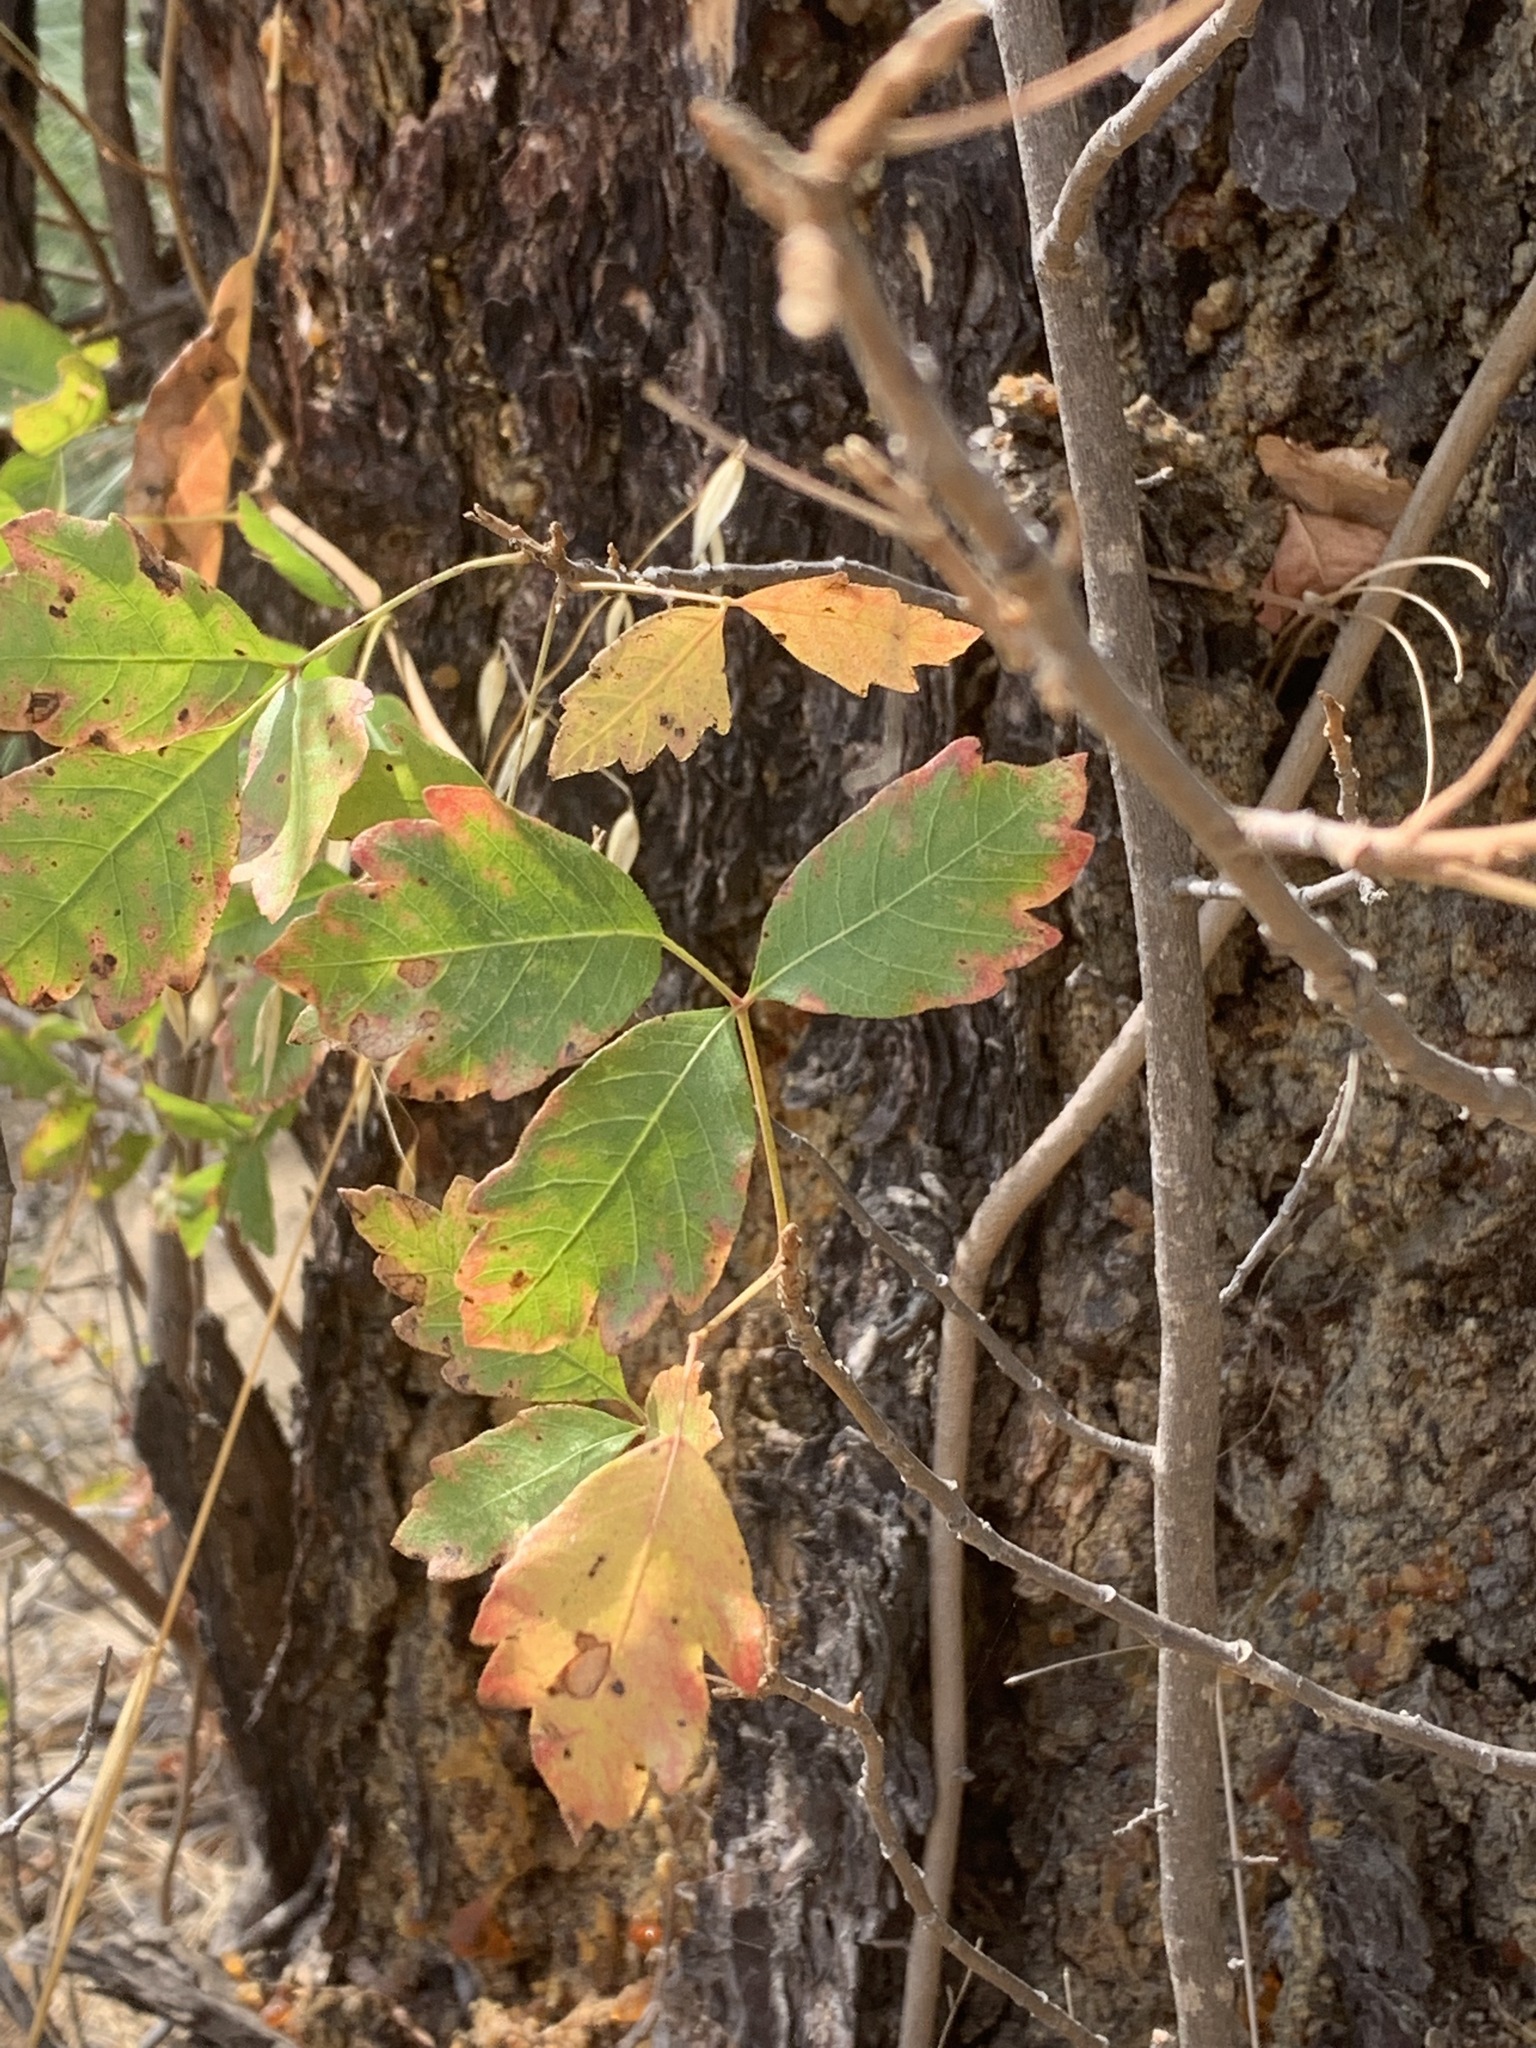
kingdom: Plantae
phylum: Tracheophyta
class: Magnoliopsida
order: Sapindales
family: Anacardiaceae
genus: Toxicodendron
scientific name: Toxicodendron diversilobum
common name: Pacific poison-oak
